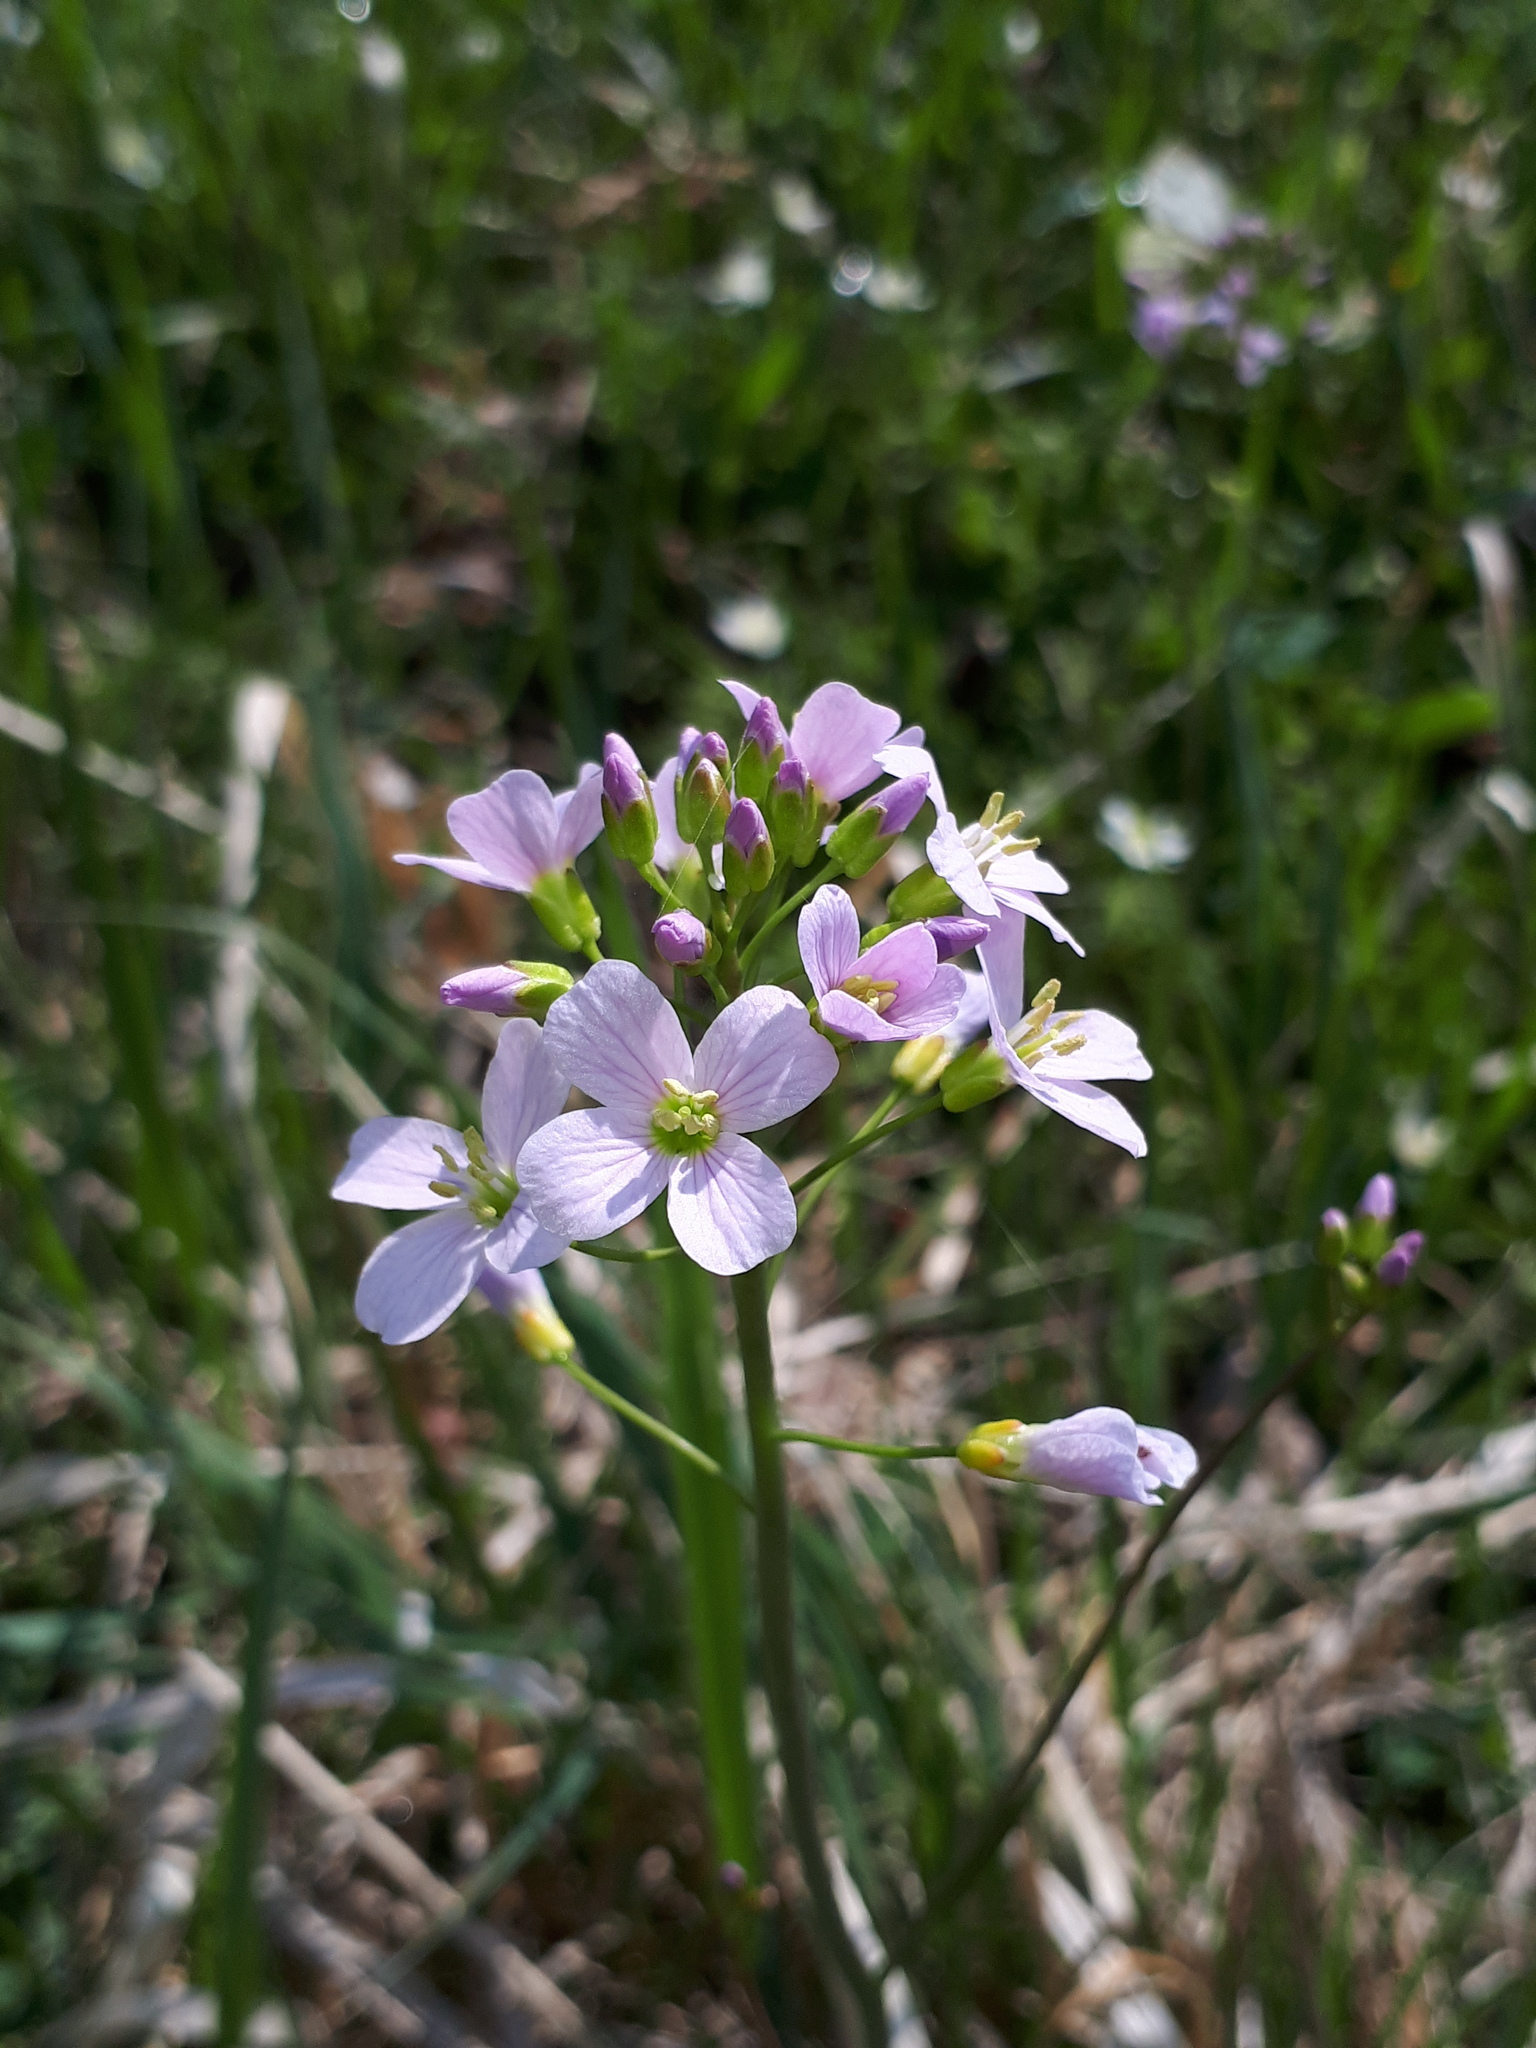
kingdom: Plantae
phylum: Tracheophyta
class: Magnoliopsida
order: Brassicales
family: Brassicaceae
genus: Cardamine
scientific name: Cardamine pratensis
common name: Cuckoo flower
